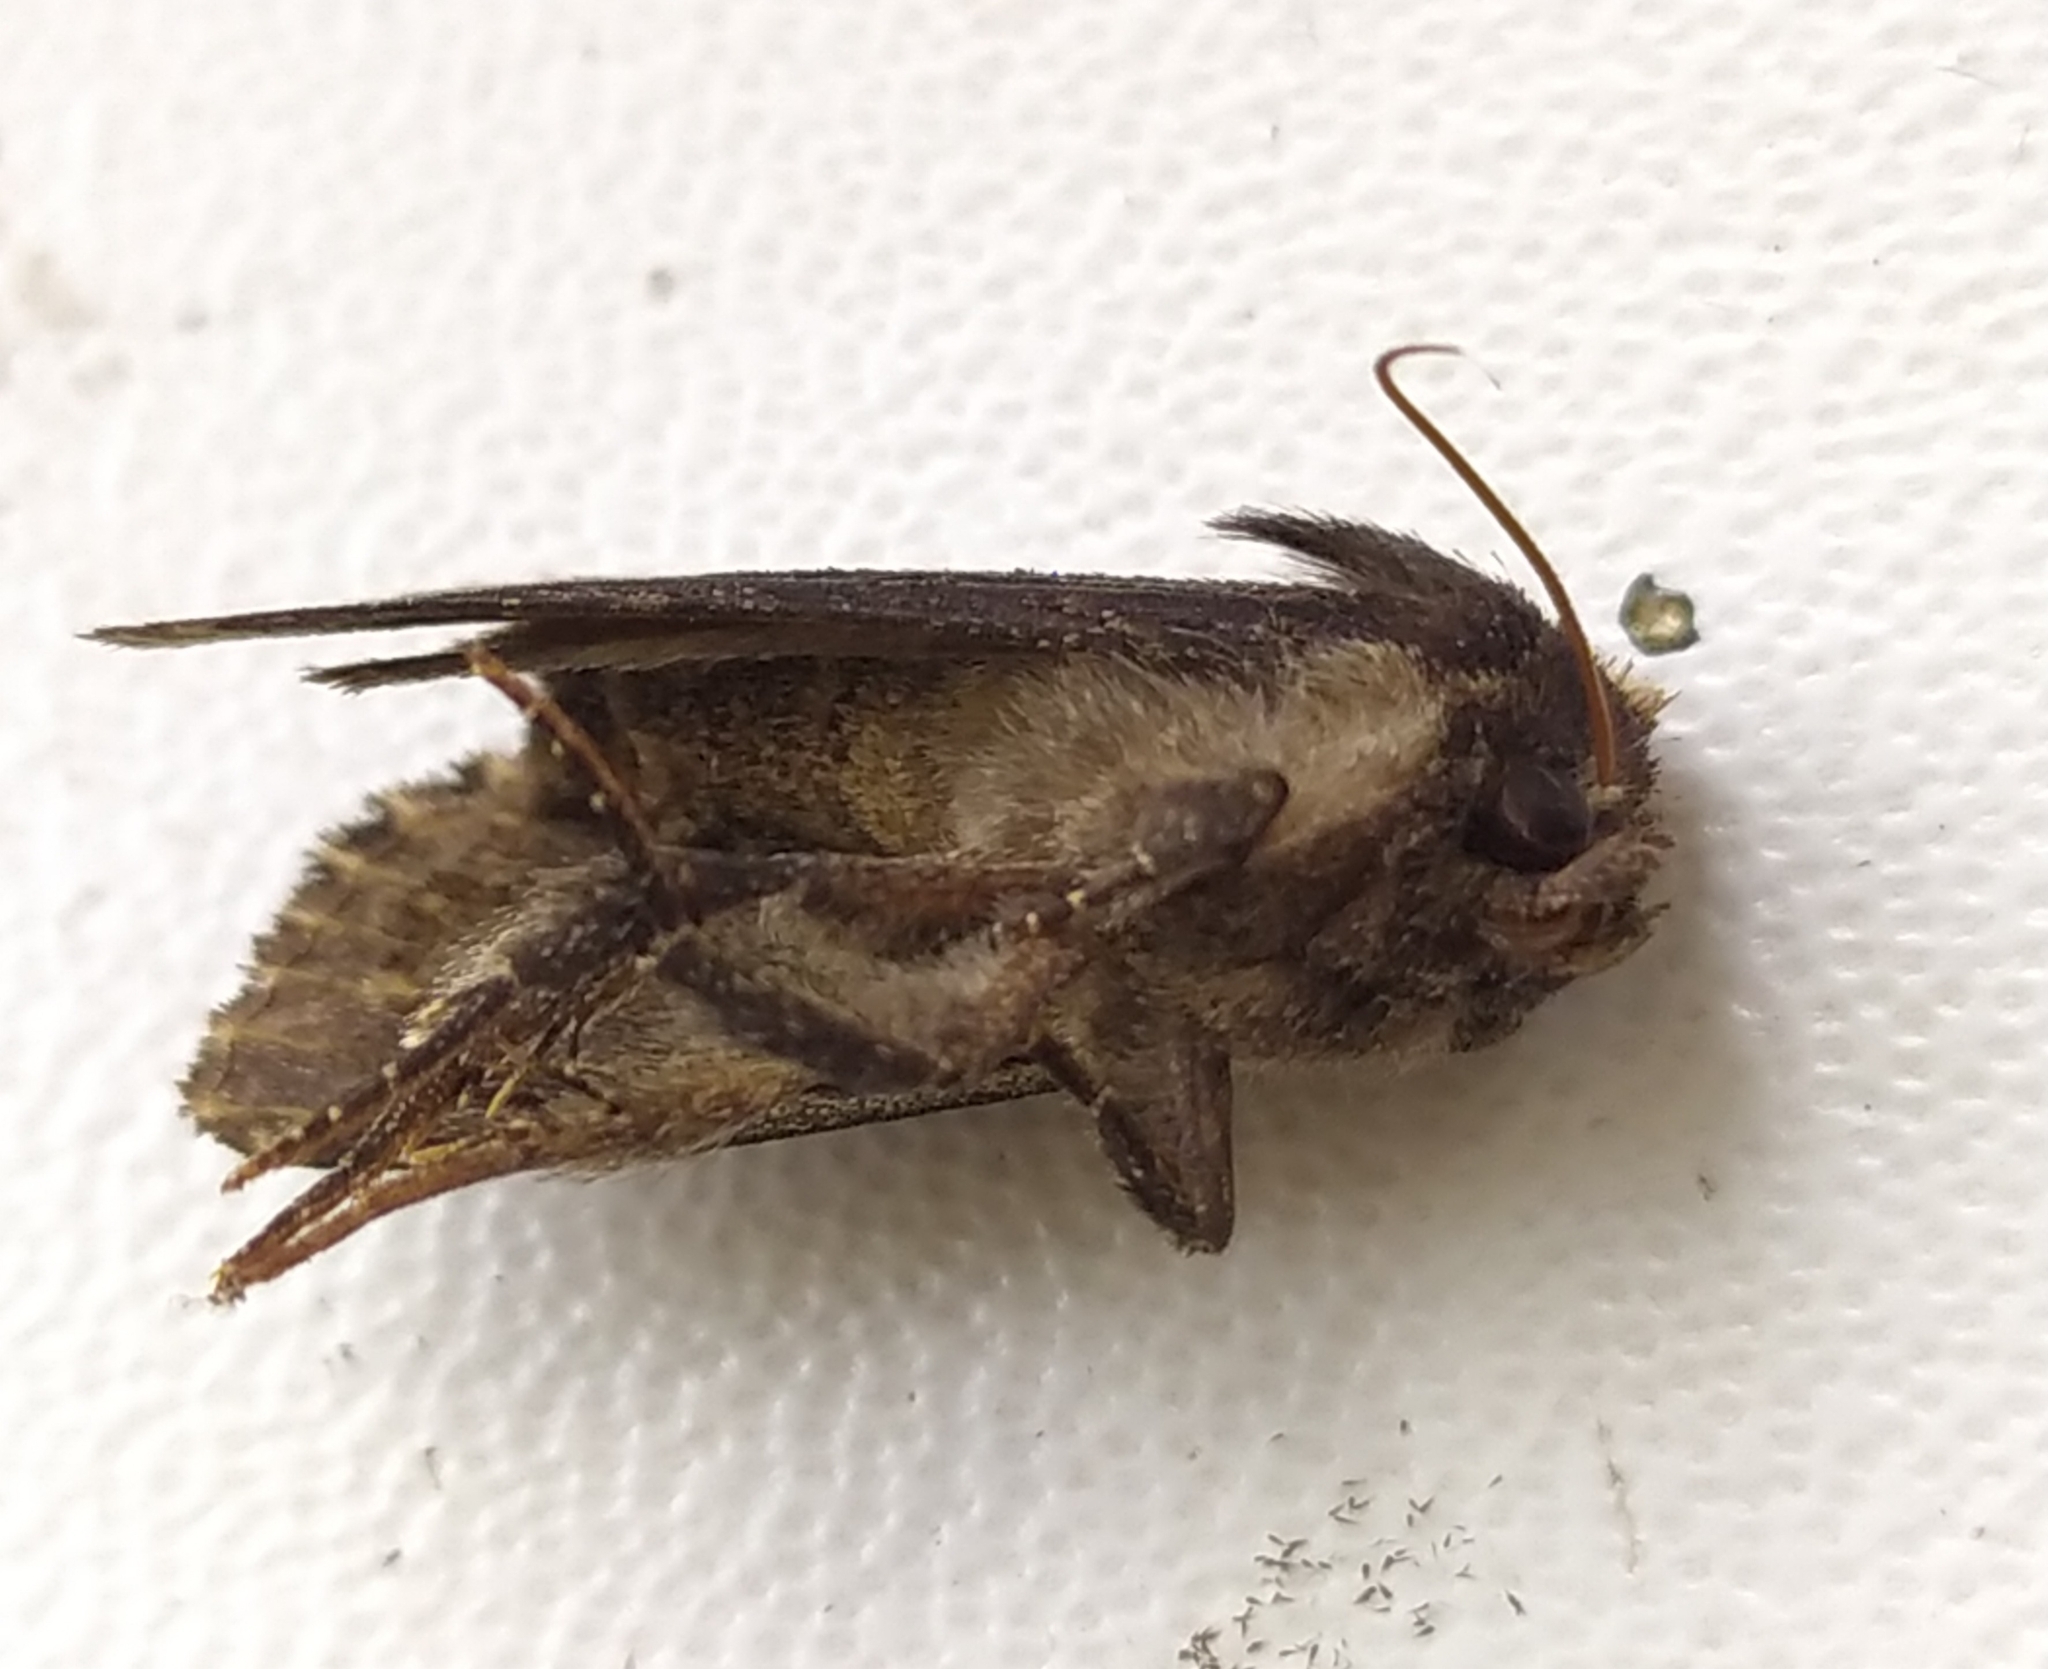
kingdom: Animalia
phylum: Arthropoda
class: Insecta
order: Lepidoptera
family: Noctuidae
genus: Dypterygia
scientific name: Dypterygia scabriuscula
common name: Bird's wing
